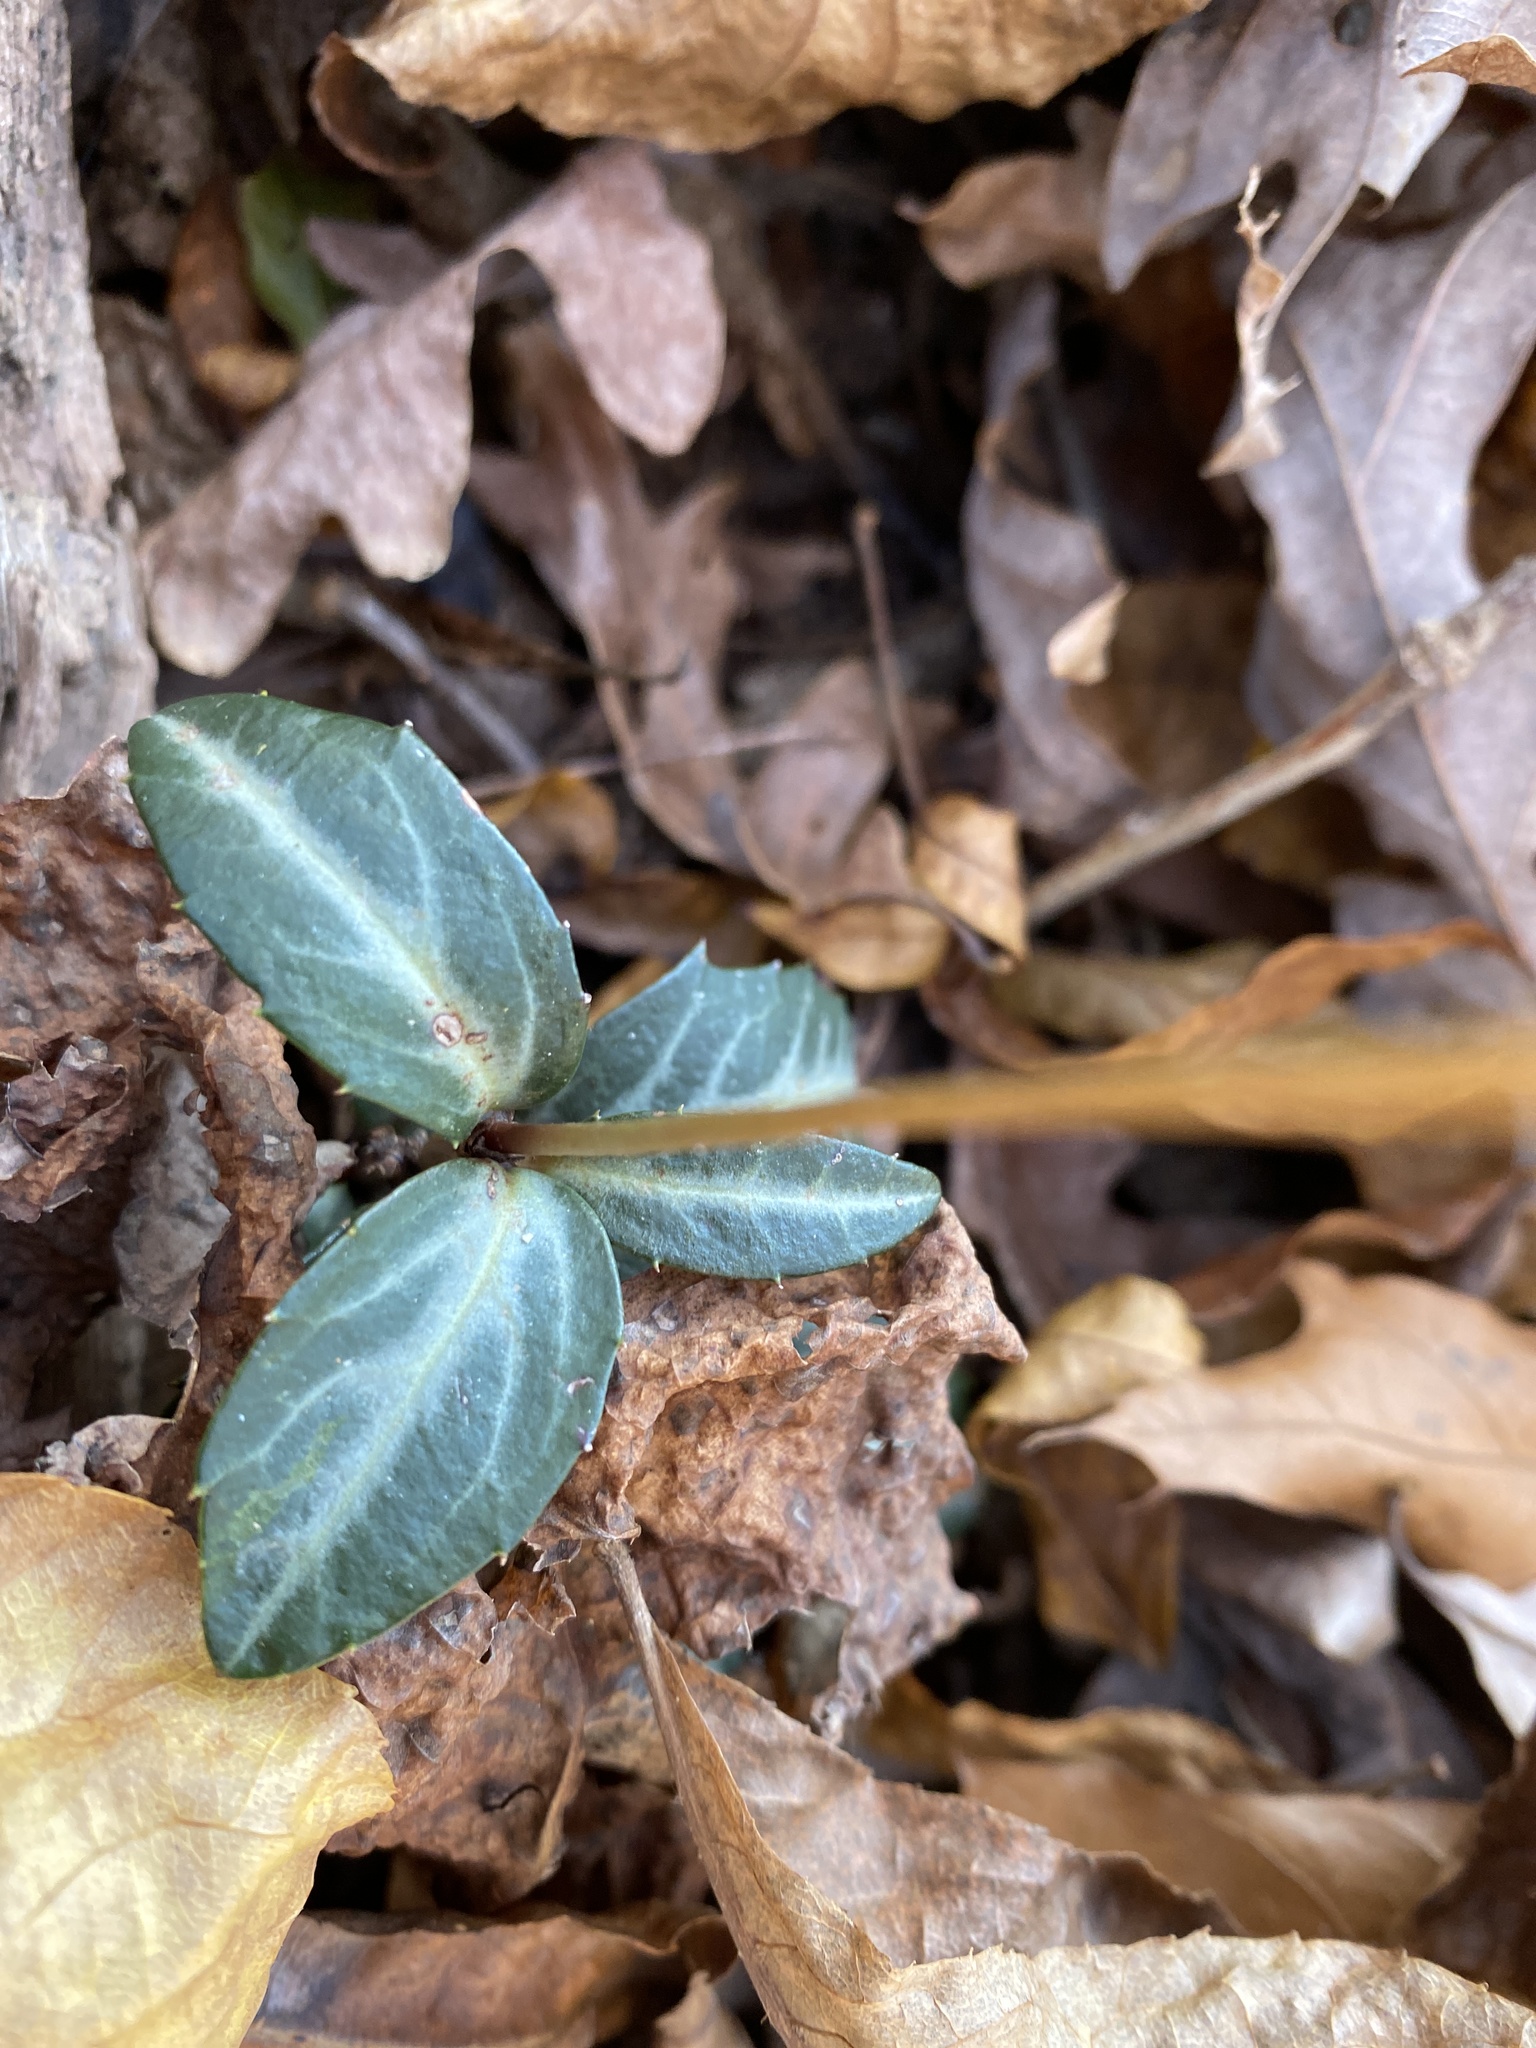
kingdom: Plantae
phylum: Tracheophyta
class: Magnoliopsida
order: Ericales
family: Ericaceae
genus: Chimaphila
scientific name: Chimaphila maculata
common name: Spotted pipsissewa
